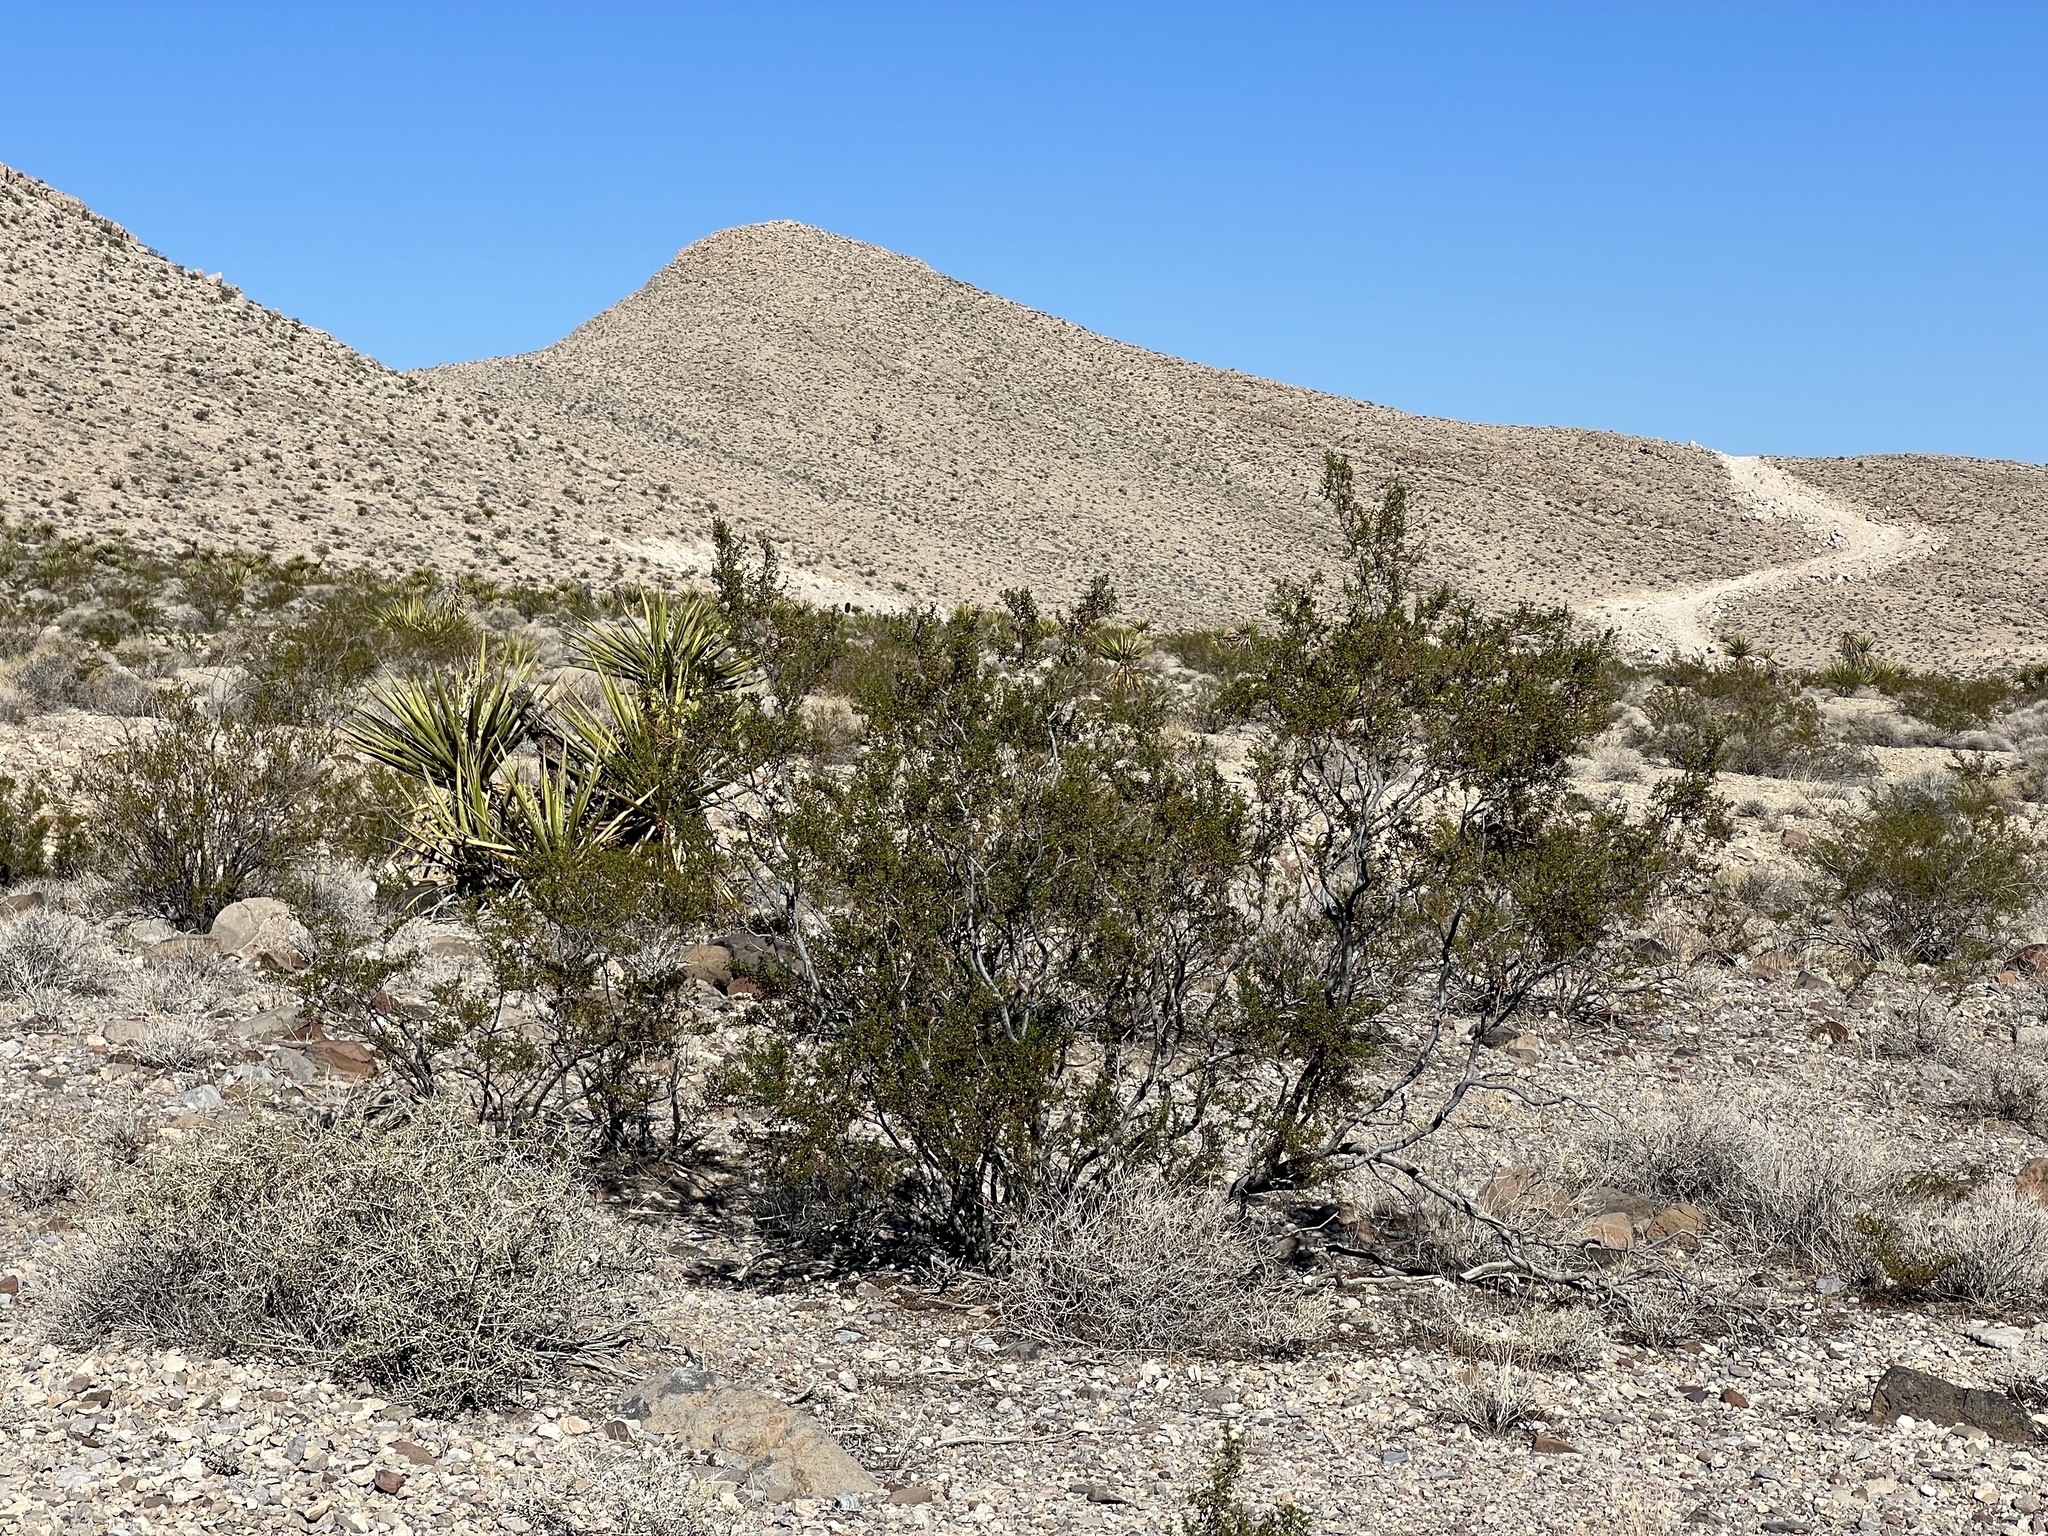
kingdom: Plantae
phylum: Tracheophyta
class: Magnoliopsida
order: Zygophyllales
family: Zygophyllaceae
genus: Larrea
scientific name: Larrea tridentata
